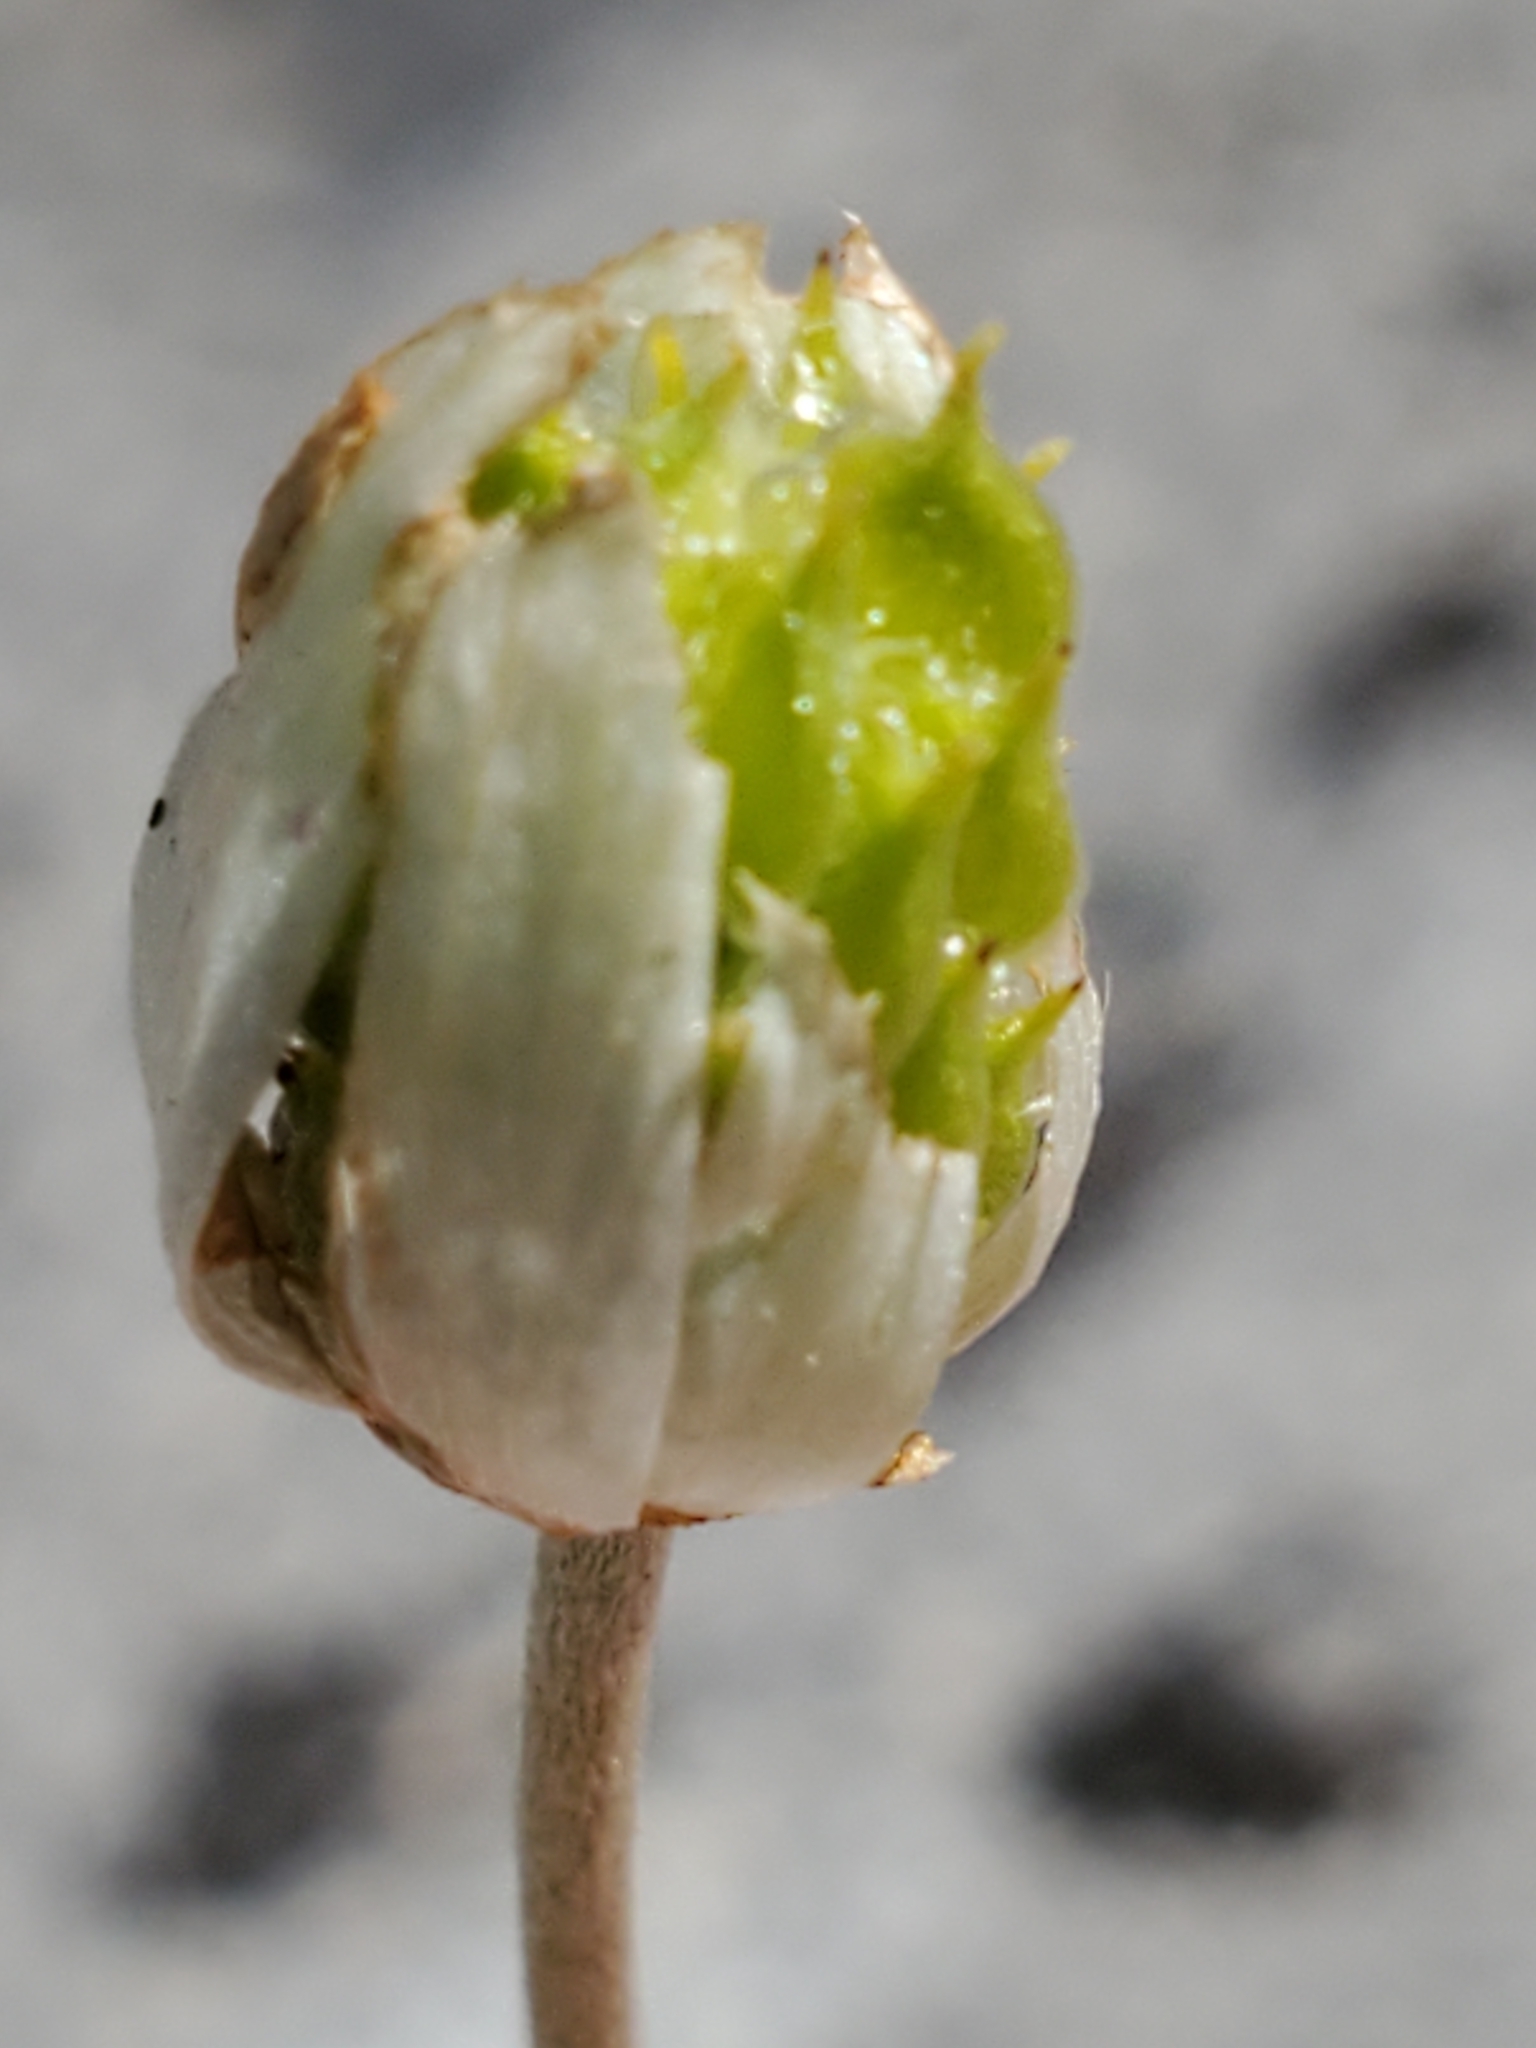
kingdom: Plantae
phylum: Tracheophyta
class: Magnoliopsida
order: Ranunculales
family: Ranunculaceae
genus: Anemone
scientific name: Anemone edwardsiana
